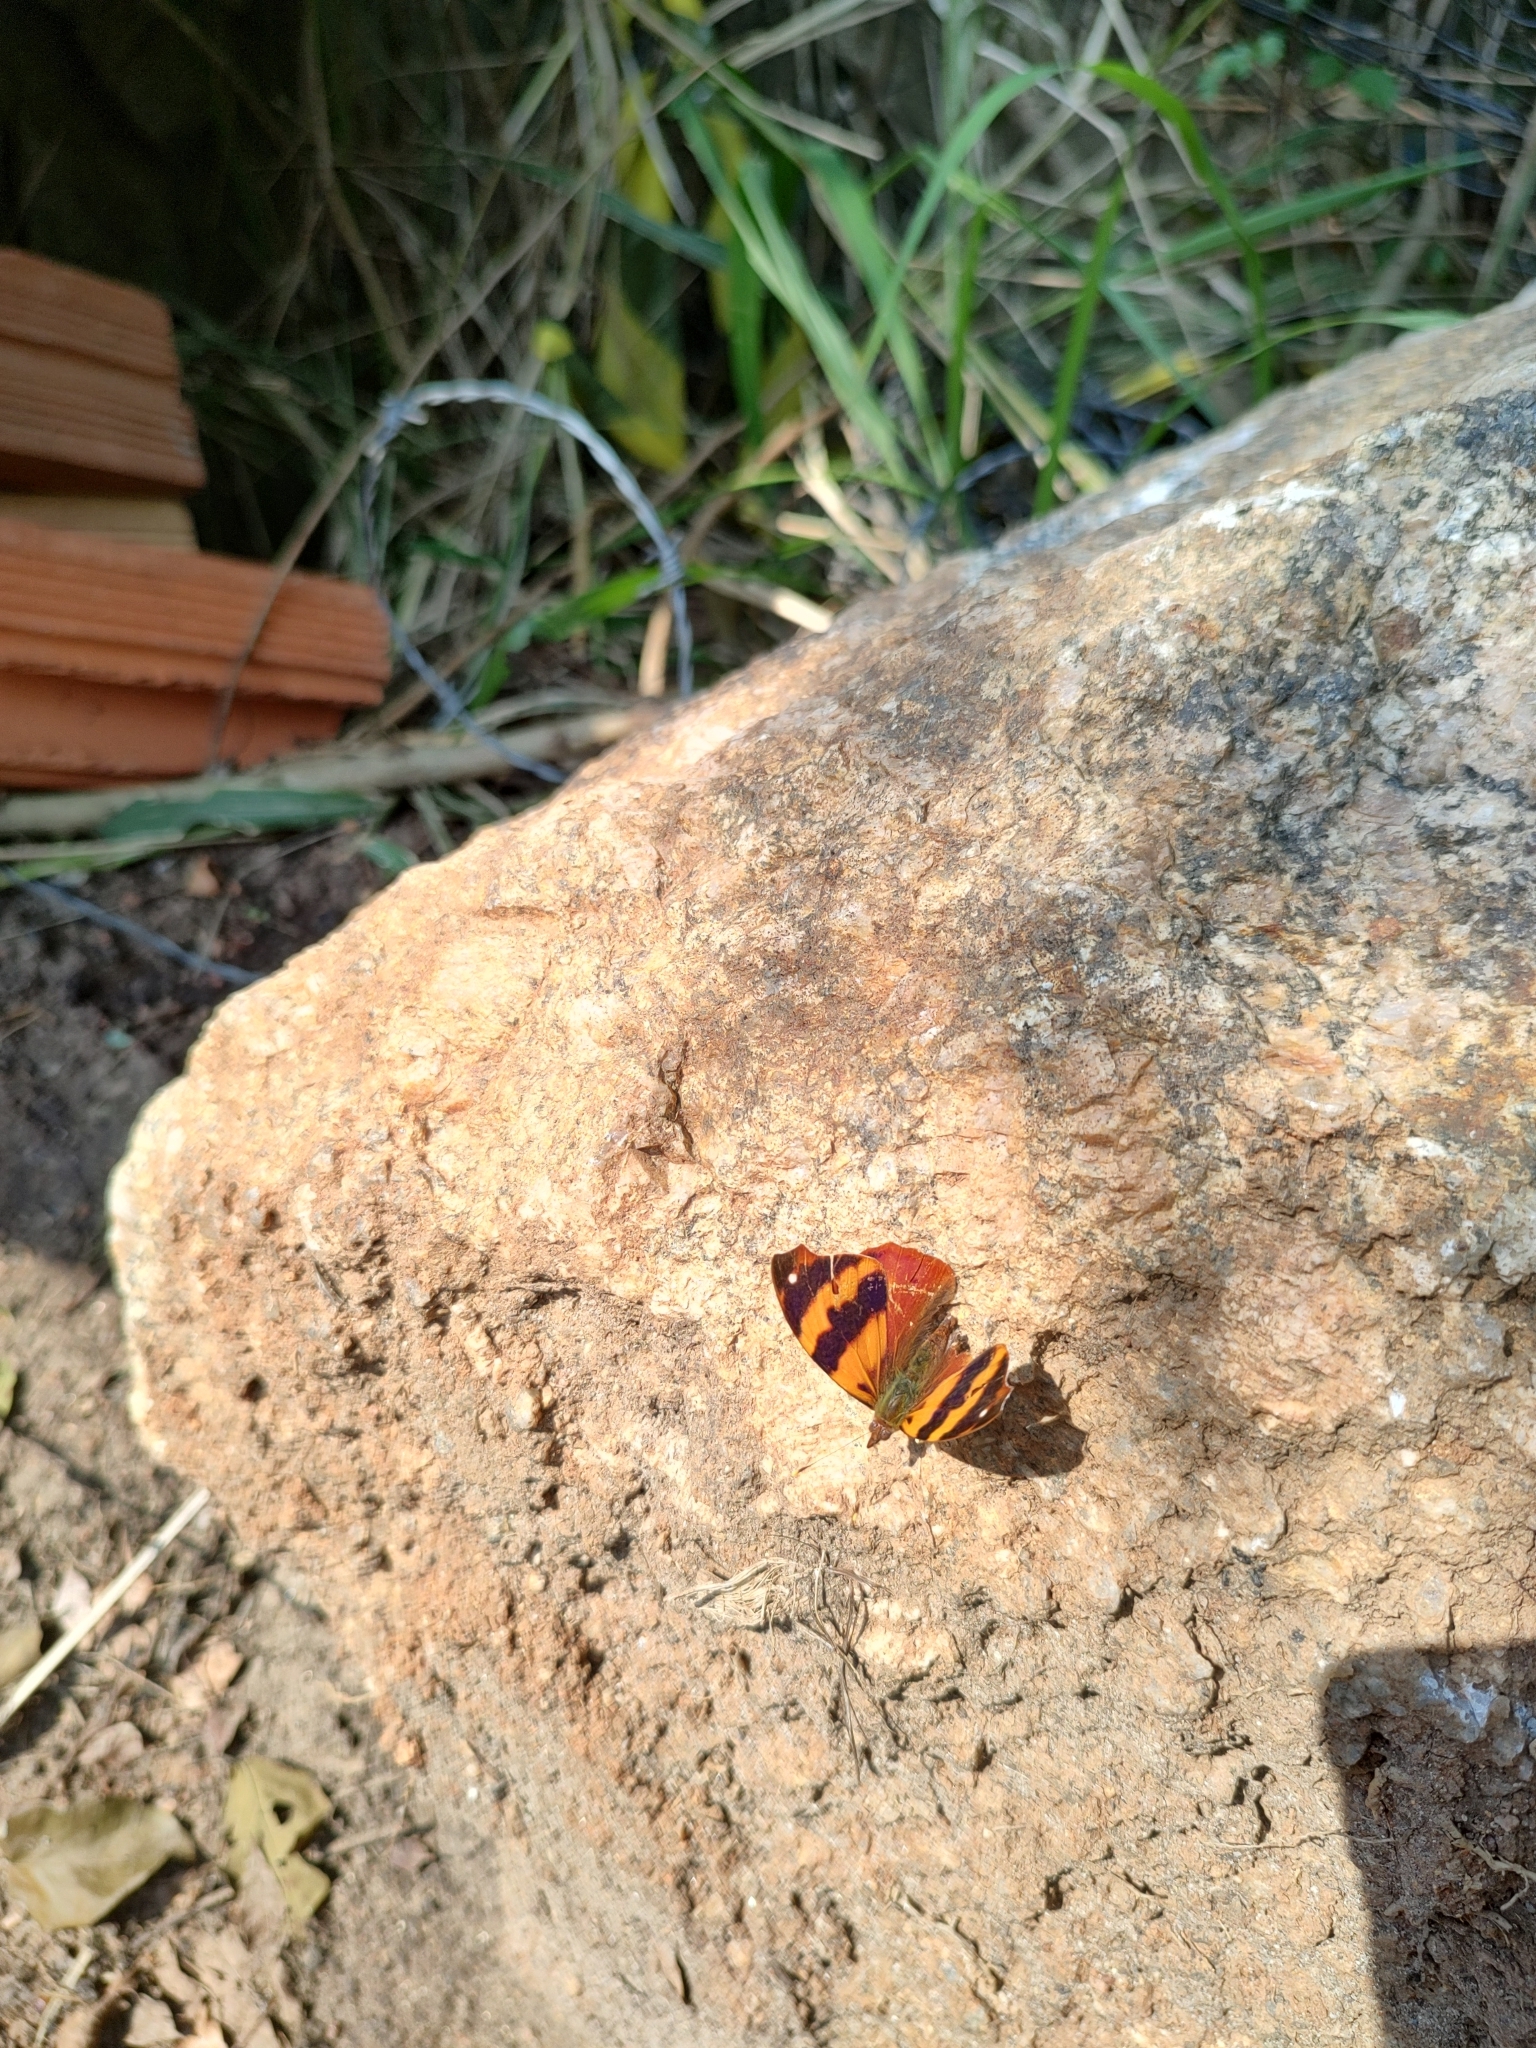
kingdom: Animalia
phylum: Arthropoda
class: Insecta
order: Lepidoptera
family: Nymphalidae
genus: Epiphile
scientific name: Epiphile hubneri
